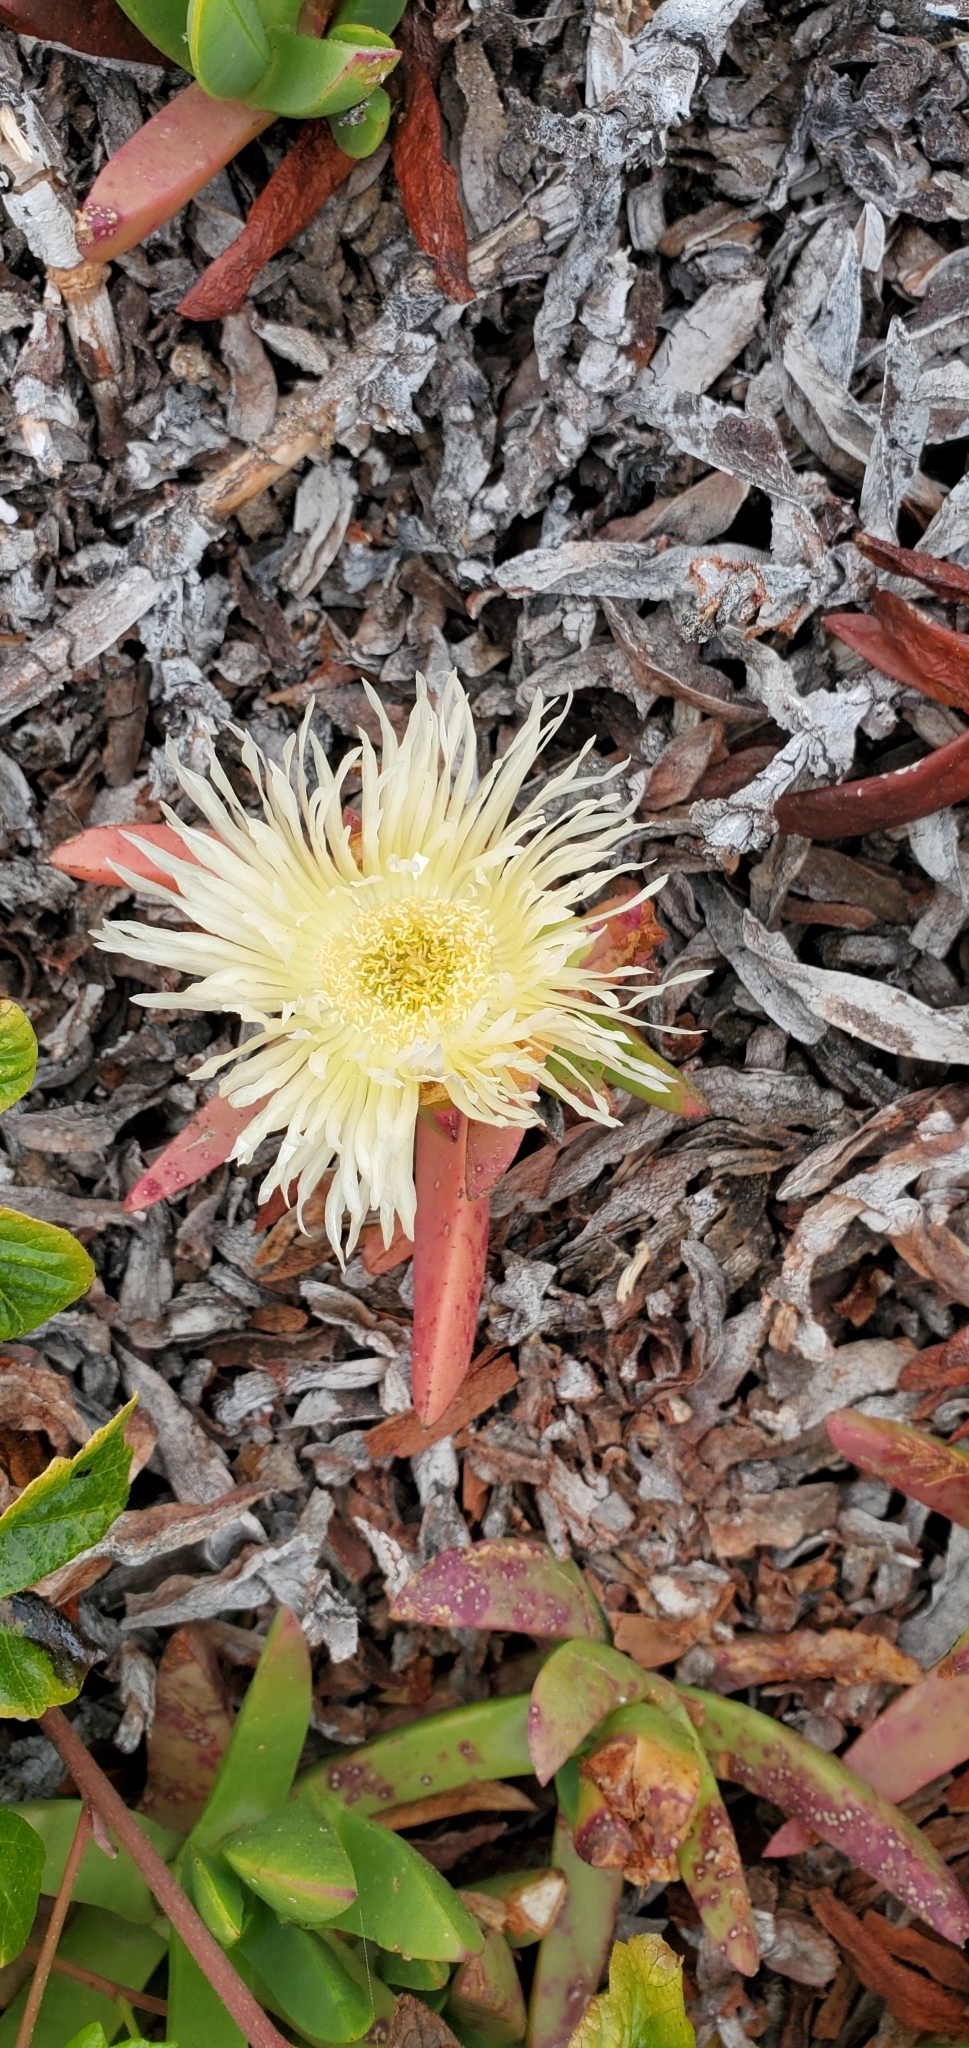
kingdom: Plantae
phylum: Tracheophyta
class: Magnoliopsida
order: Caryophyllales
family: Aizoaceae
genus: Carpobrotus
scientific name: Carpobrotus edulis
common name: Hottentot-fig
